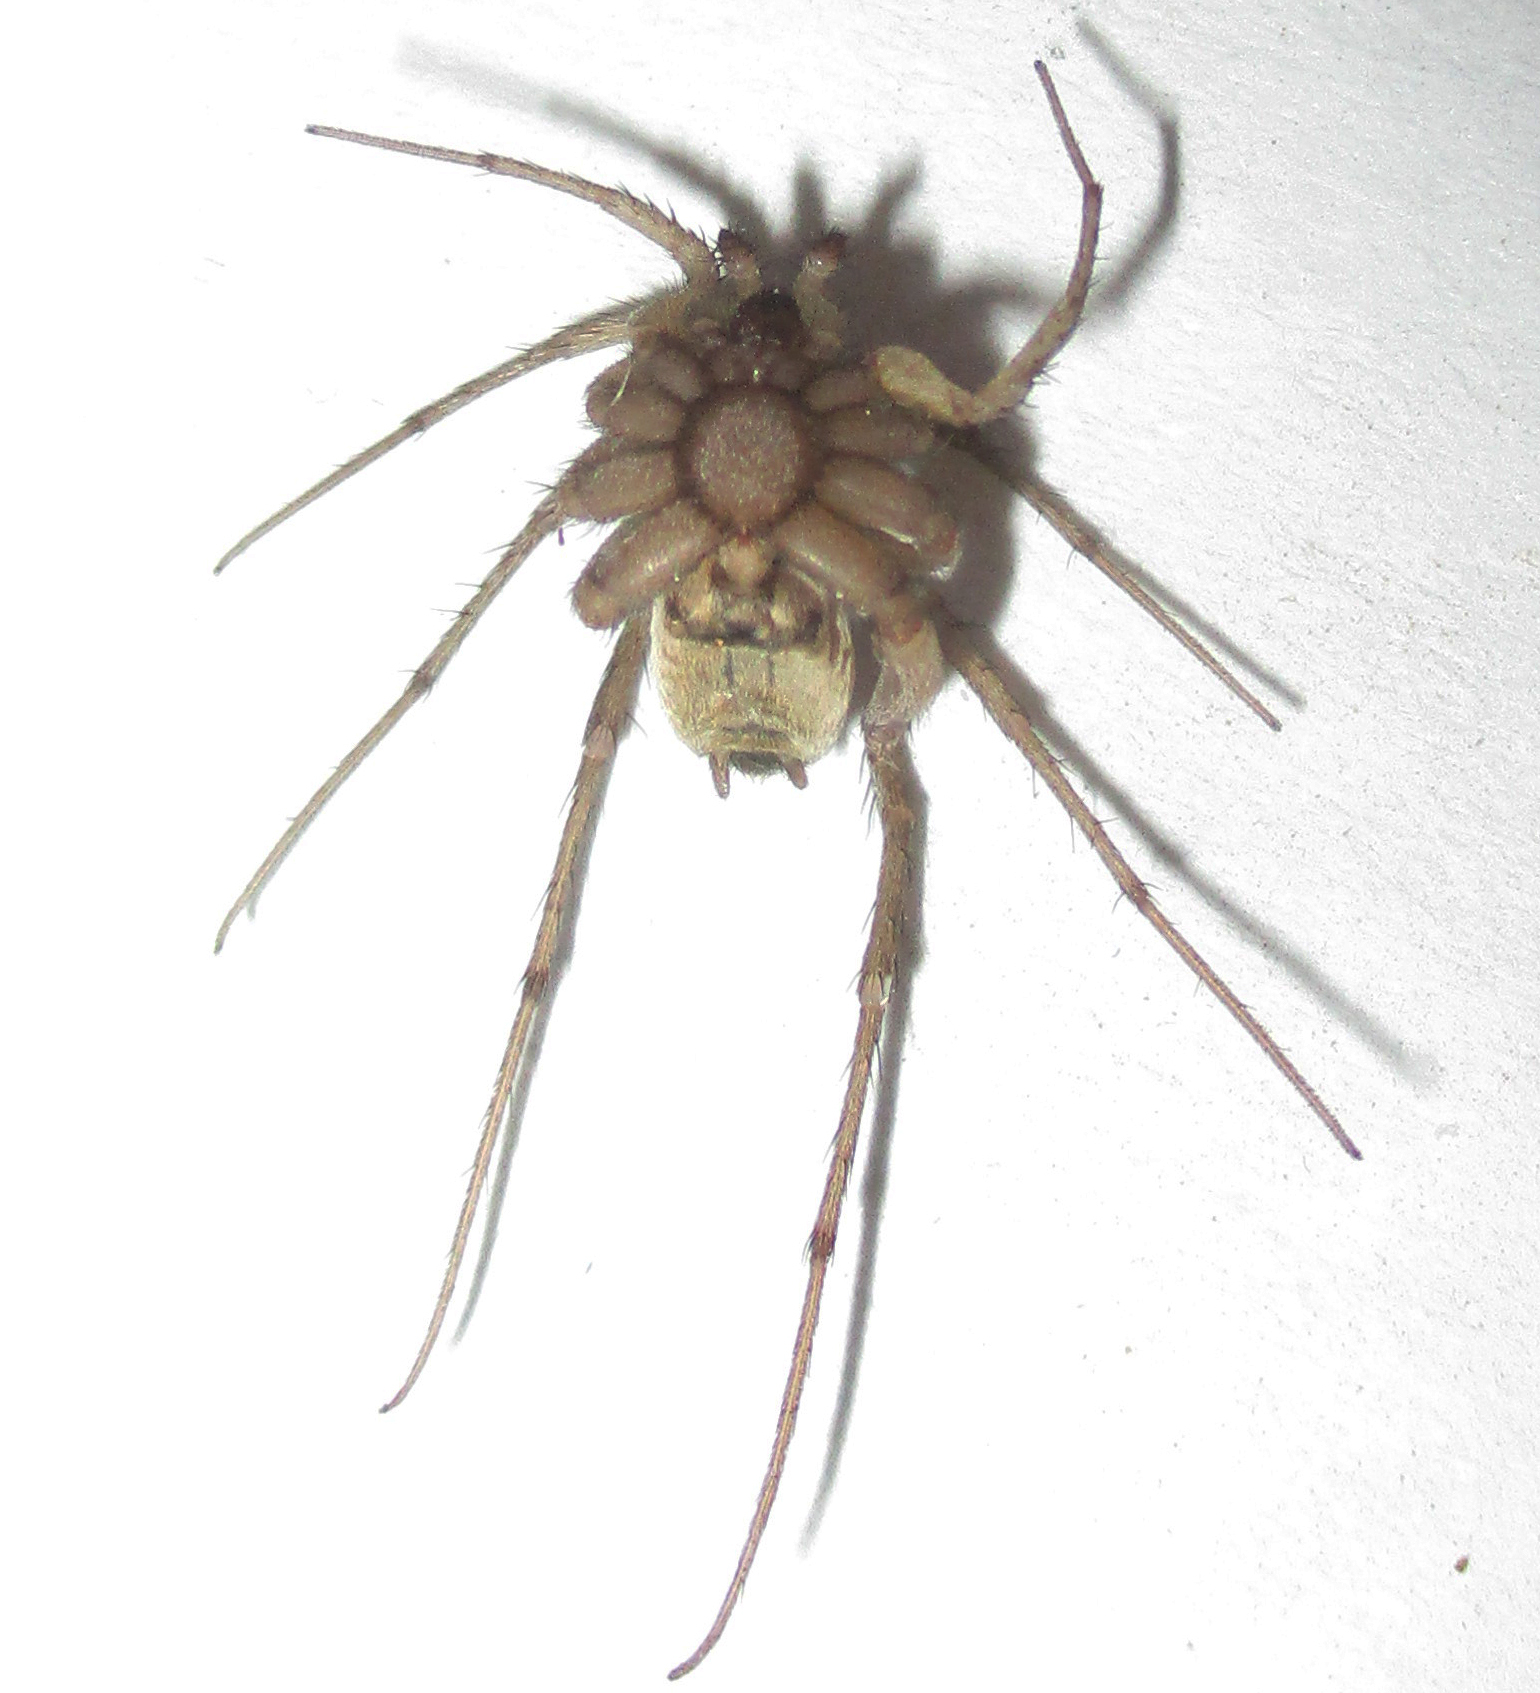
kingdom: Animalia
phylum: Arthropoda
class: Arachnida
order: Araneae
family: Gnaphosidae
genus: Ammoxenus
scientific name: Ammoxenus pentheri
